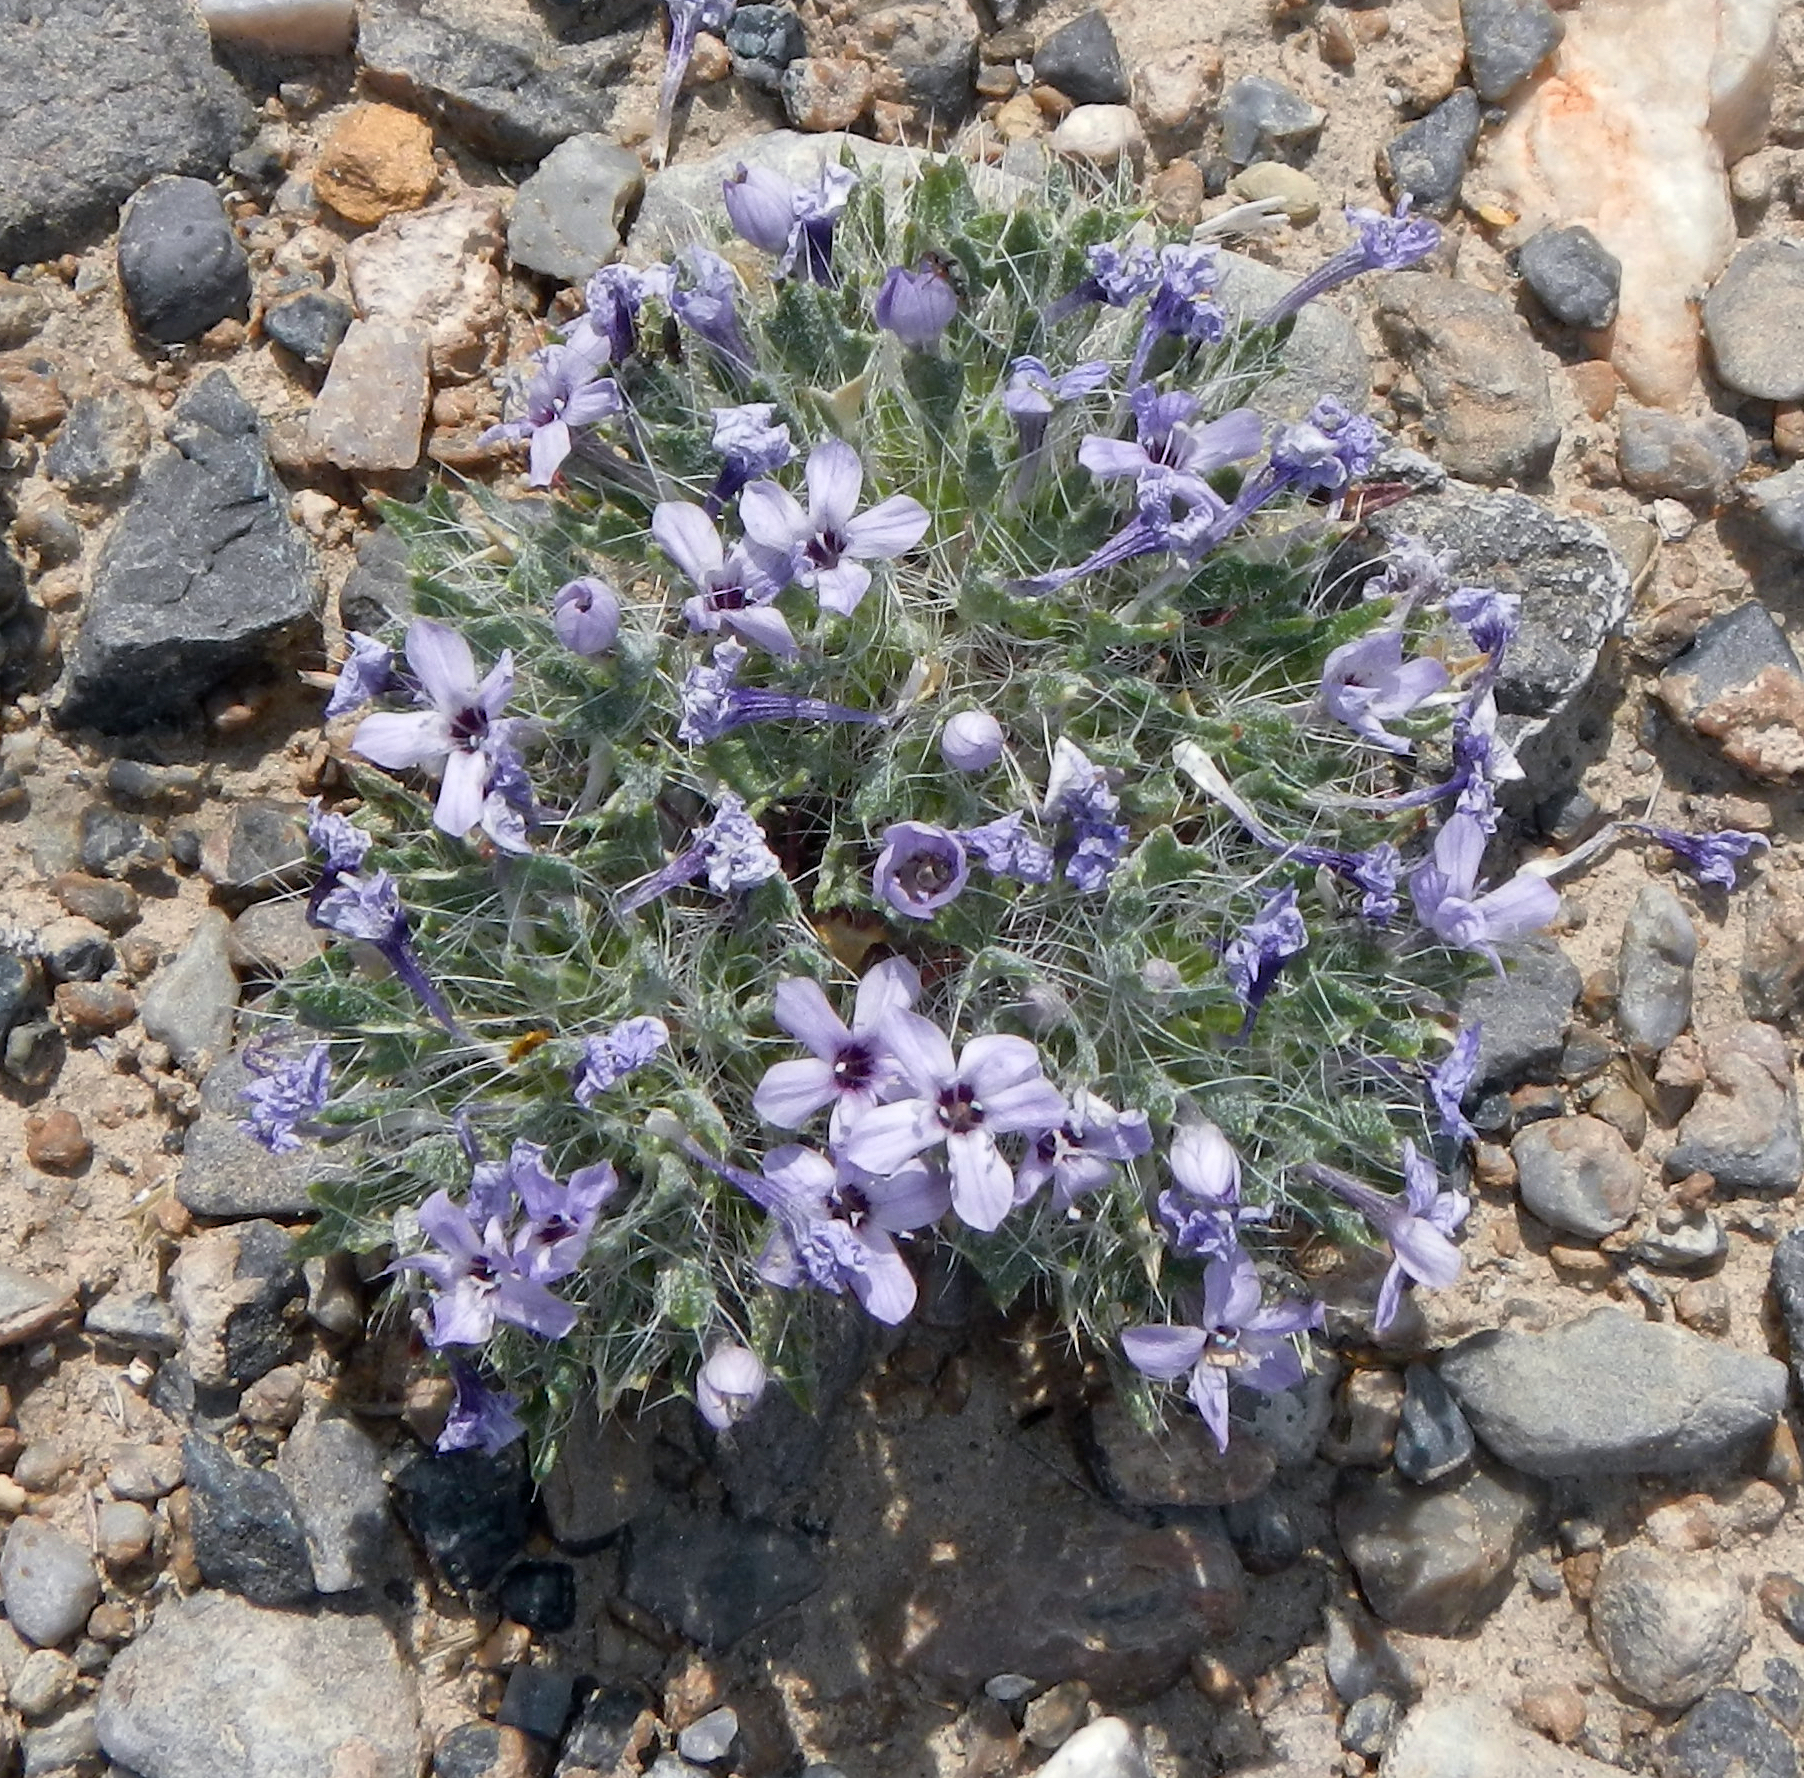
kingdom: Plantae
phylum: Tracheophyta
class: Magnoliopsida
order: Ericales
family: Polemoniaceae
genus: Langloisia
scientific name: Langloisia setosissima
